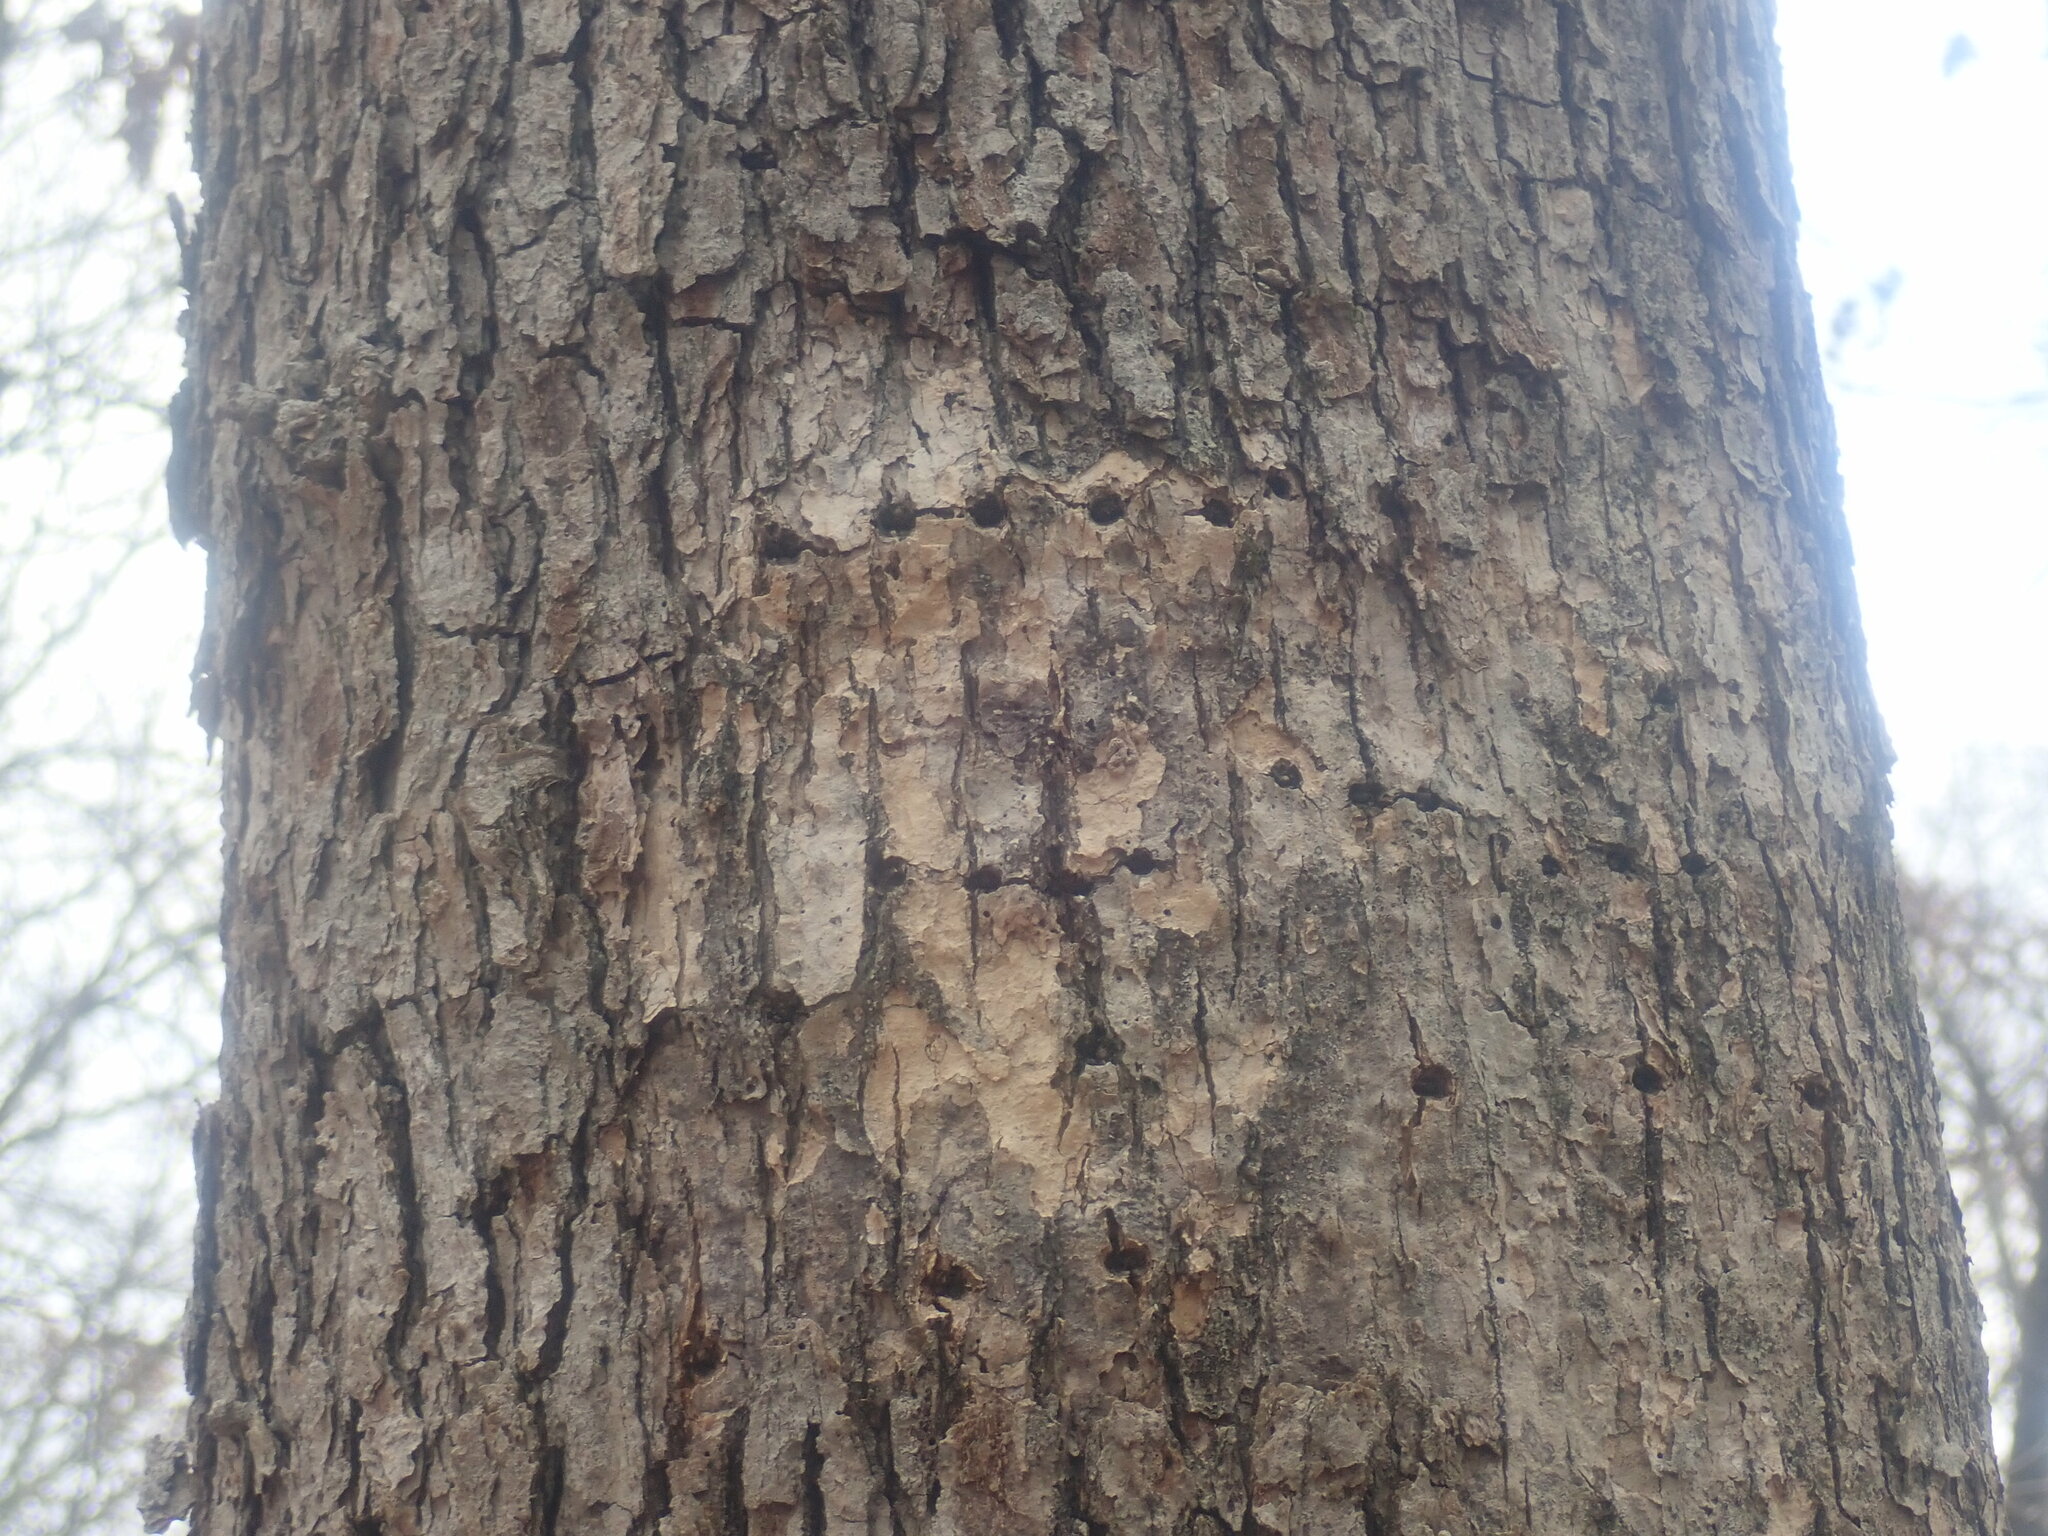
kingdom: Animalia
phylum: Chordata
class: Aves
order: Piciformes
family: Picidae
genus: Sphyrapicus
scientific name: Sphyrapicus varius
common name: Yellow-bellied sapsucker
